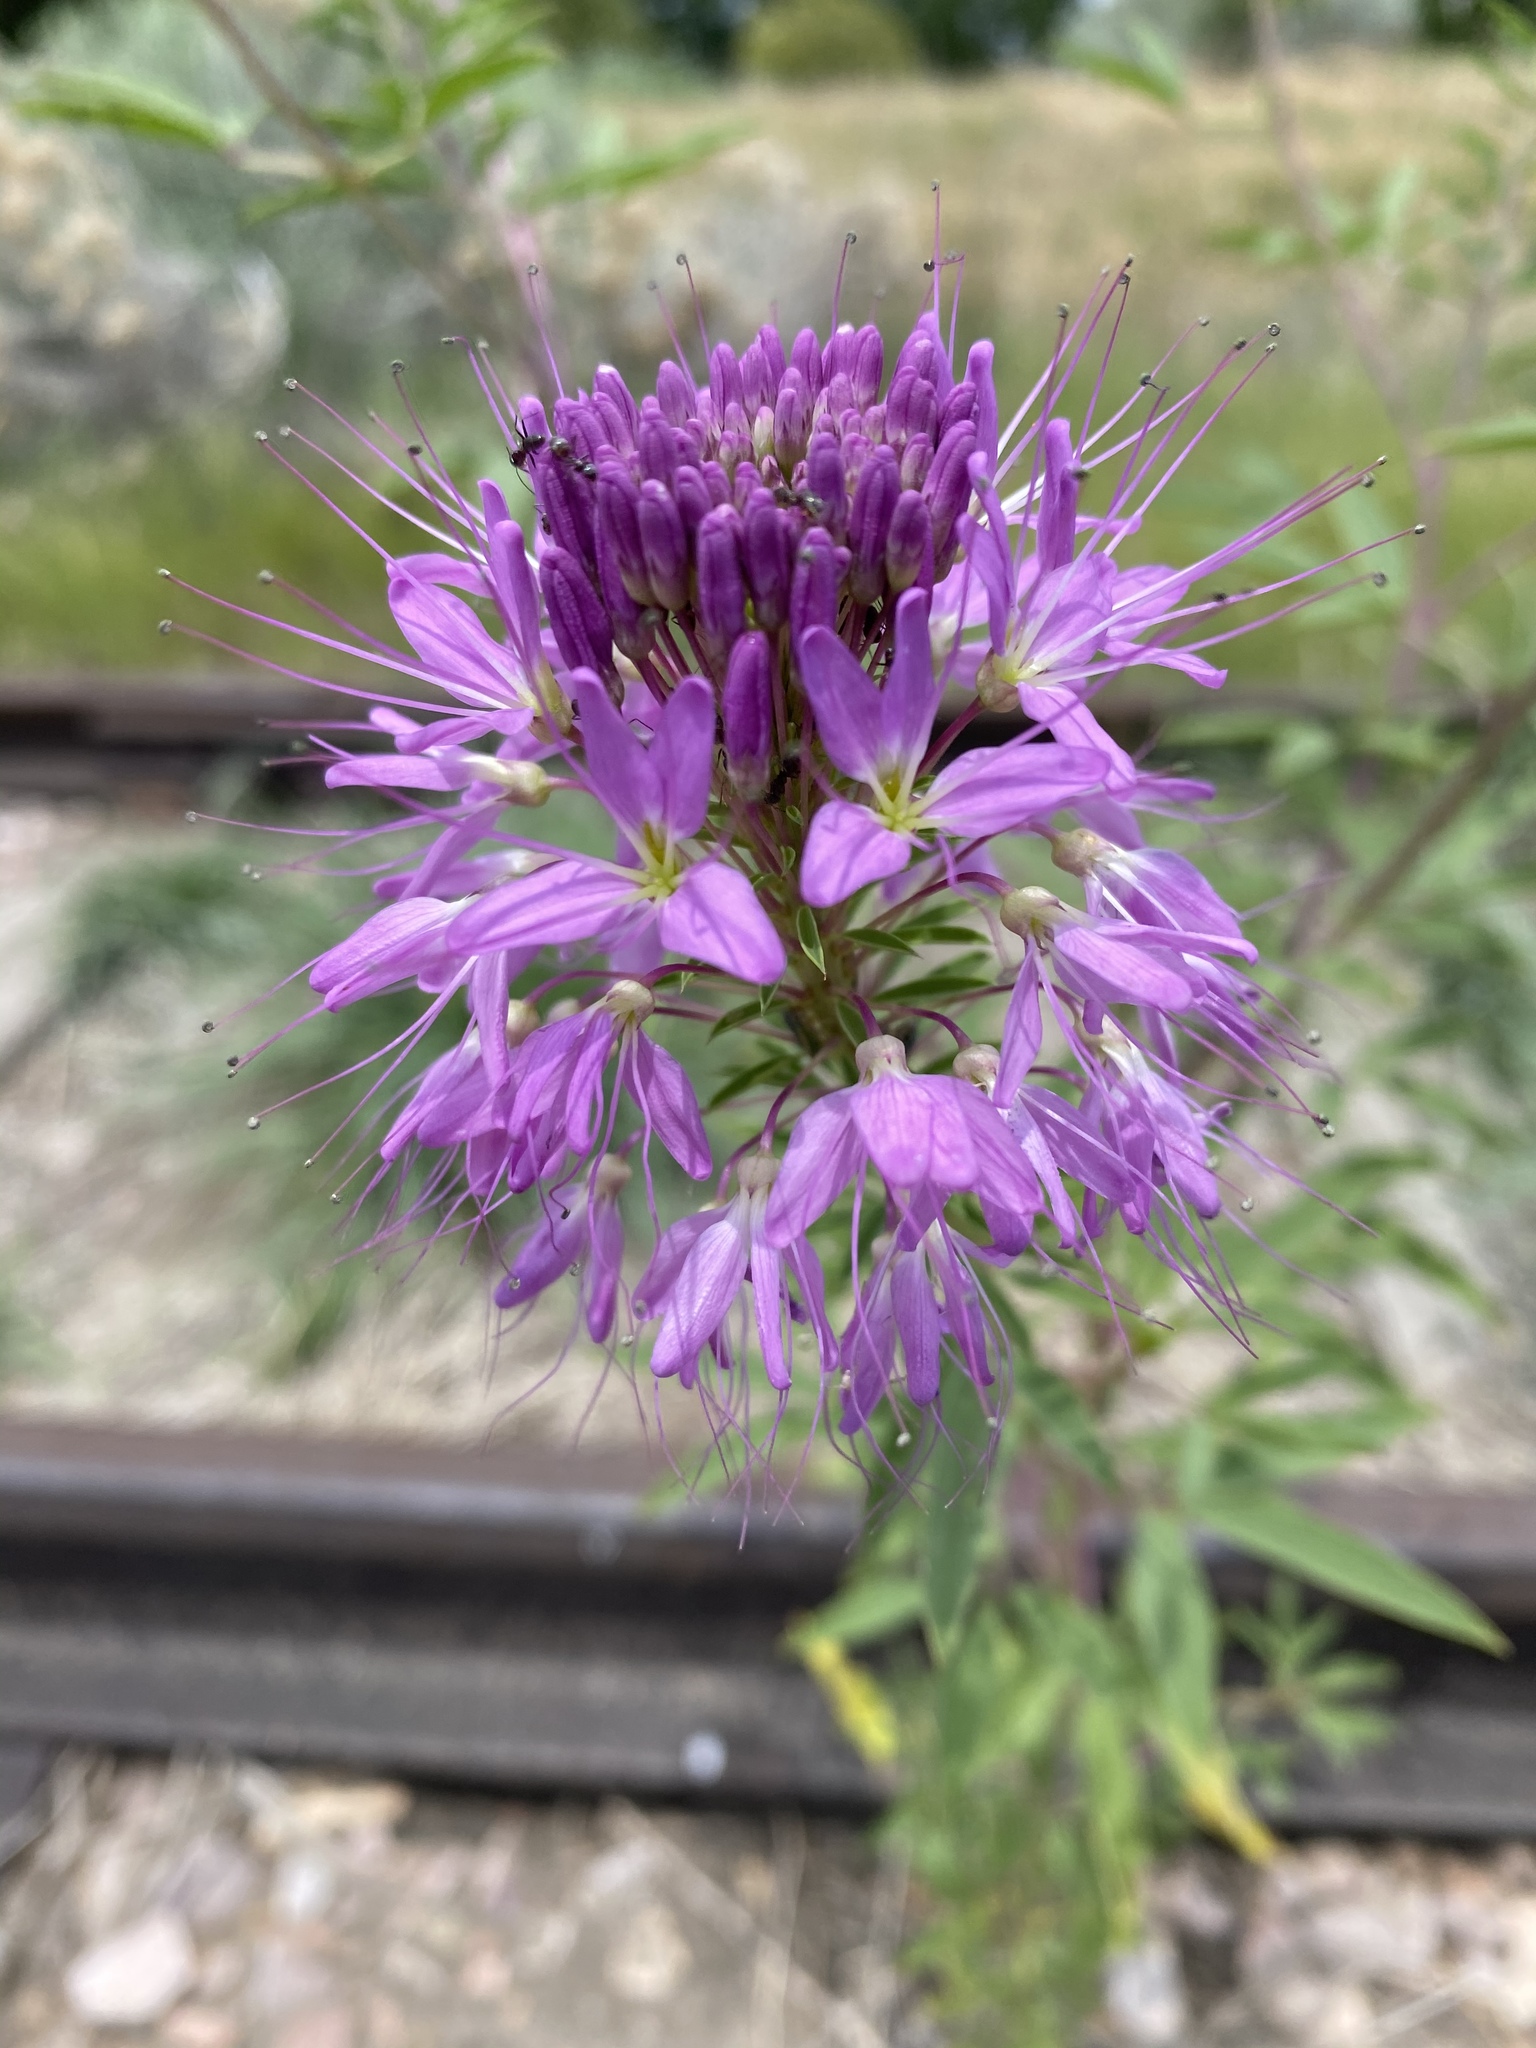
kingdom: Plantae
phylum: Tracheophyta
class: Magnoliopsida
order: Brassicales
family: Cleomaceae
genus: Cleomella
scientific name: Cleomella serrulata
